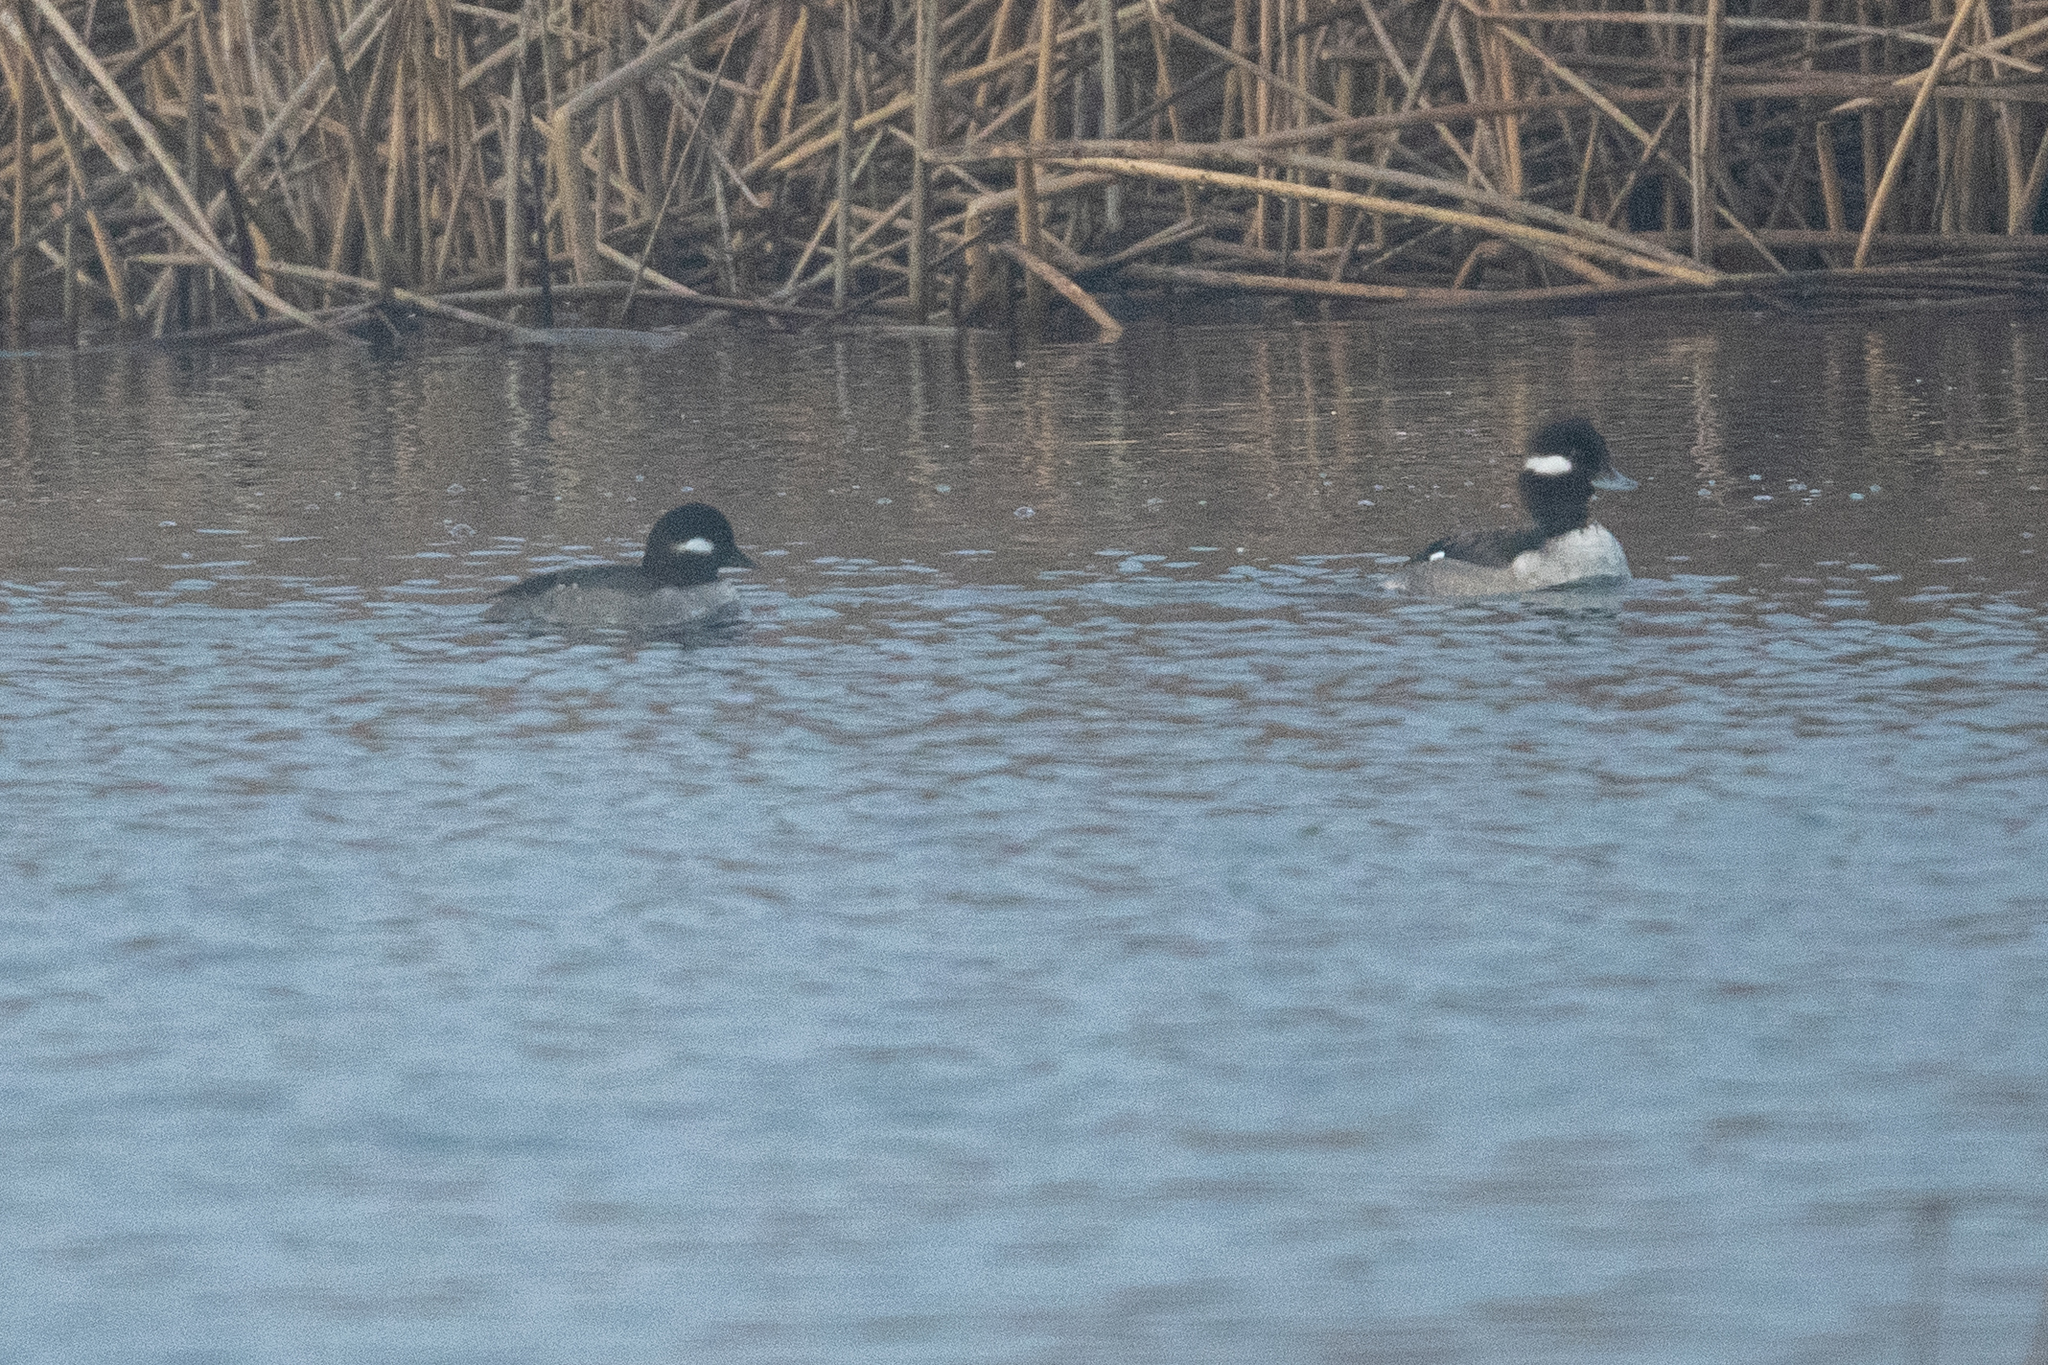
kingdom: Animalia
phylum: Chordata
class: Aves
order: Anseriformes
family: Anatidae
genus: Bucephala
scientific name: Bucephala albeola
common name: Bufflehead
